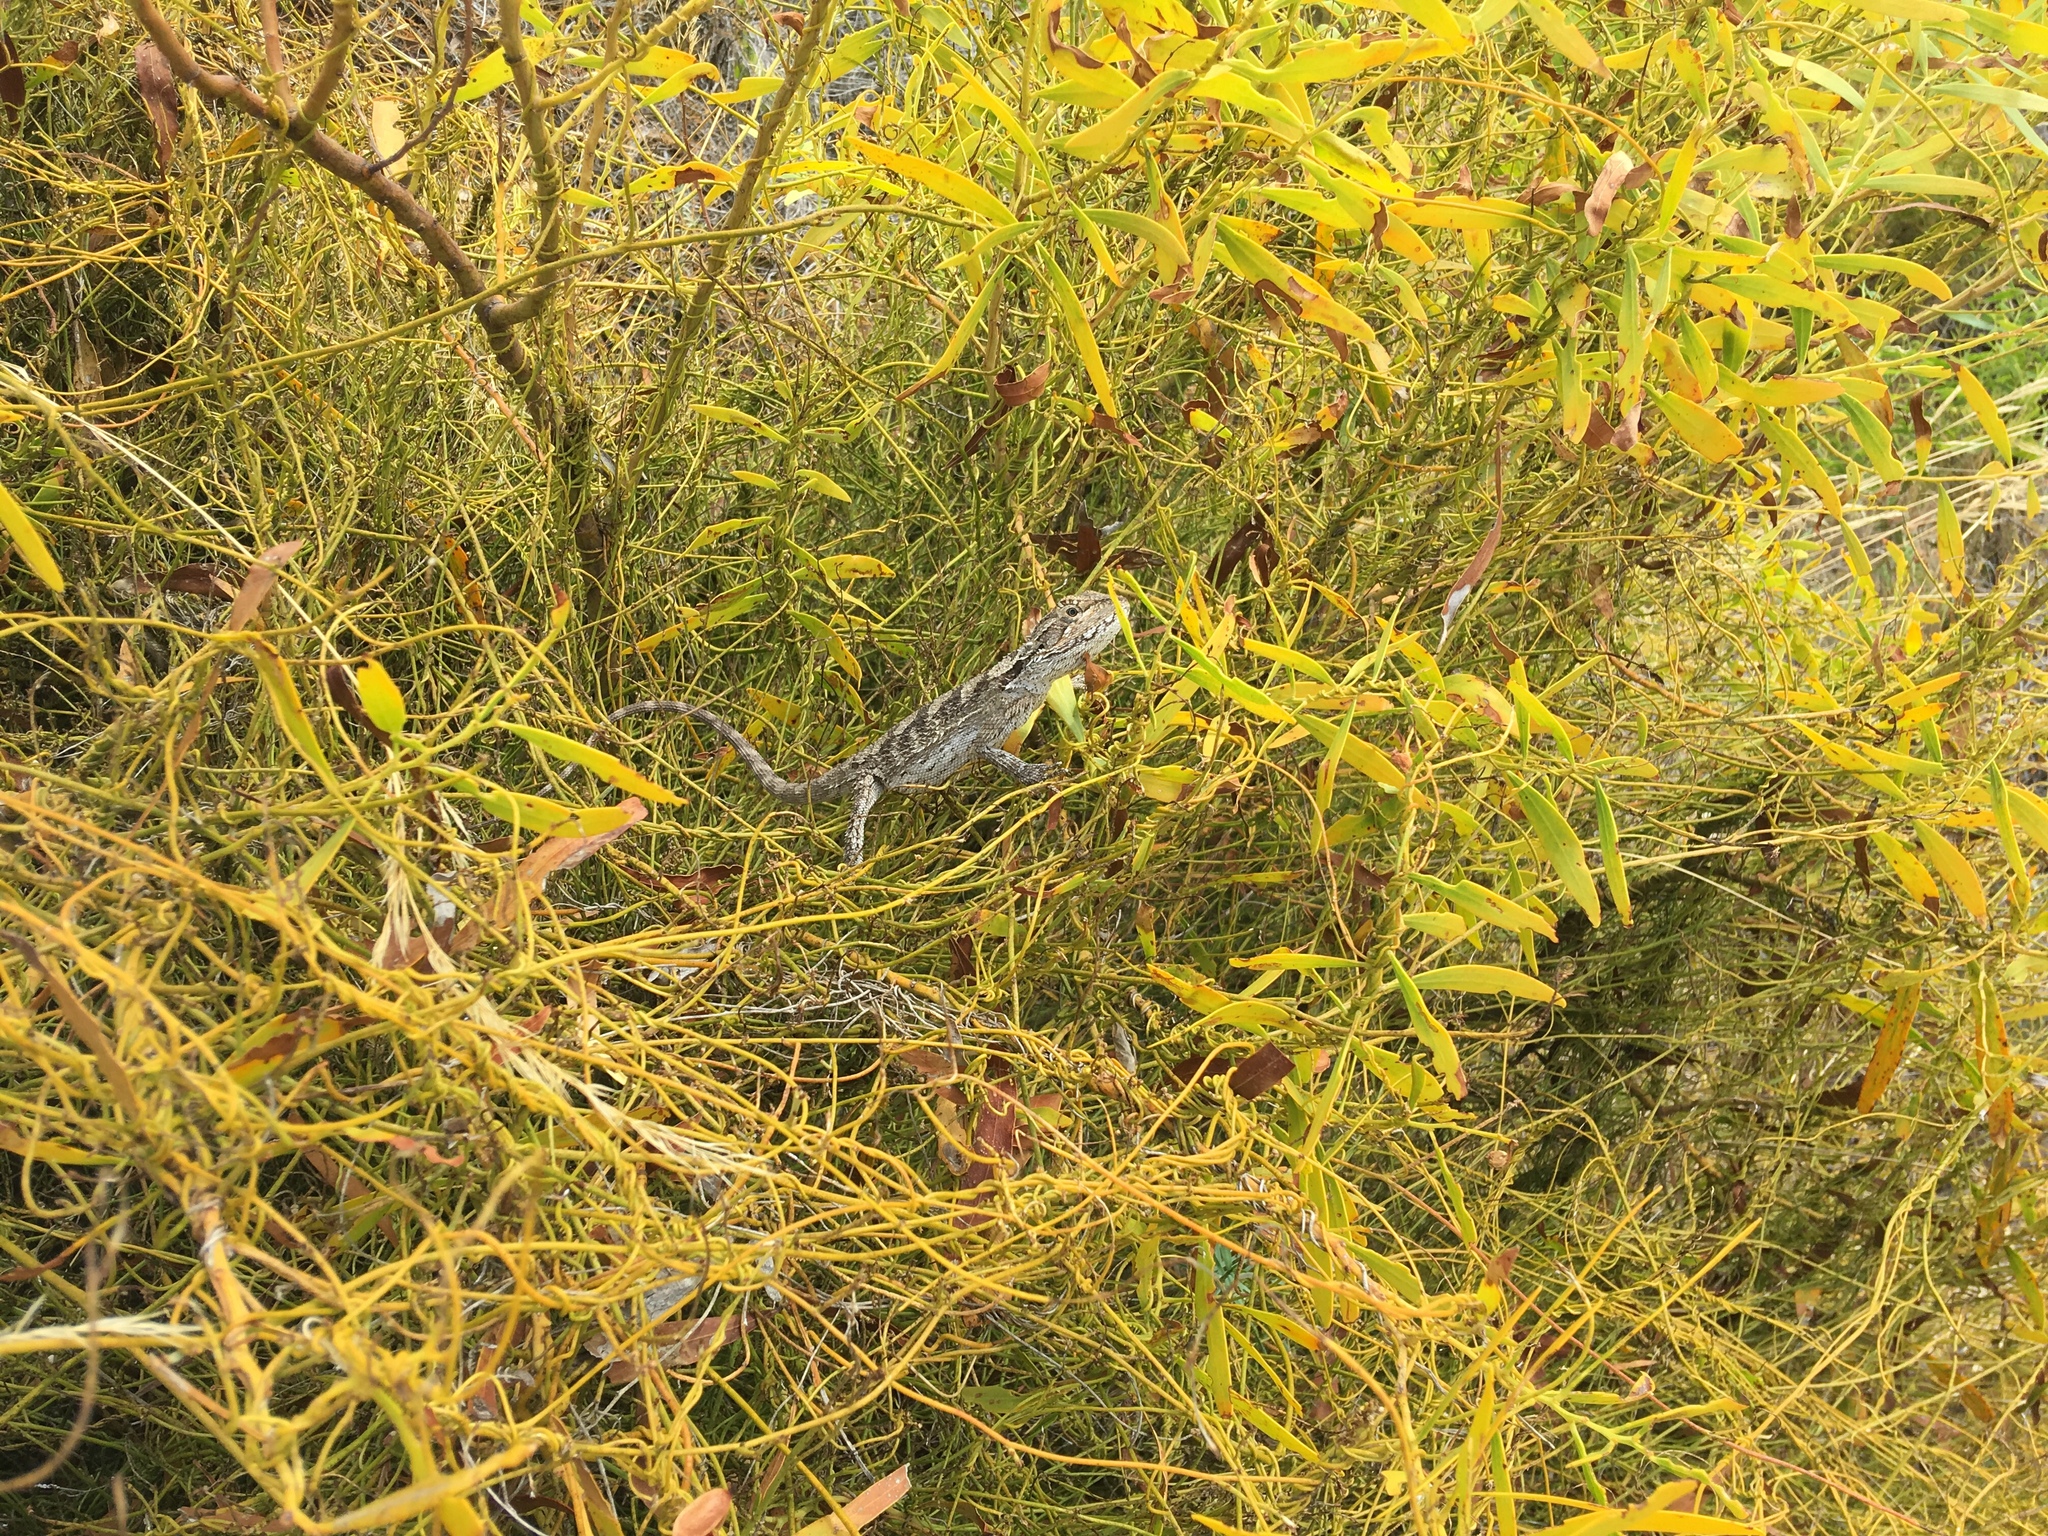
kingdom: Animalia
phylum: Chordata
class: Squamata
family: Agamidae
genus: Pogona
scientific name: Pogona minor
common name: Dwarf bearded dragon
